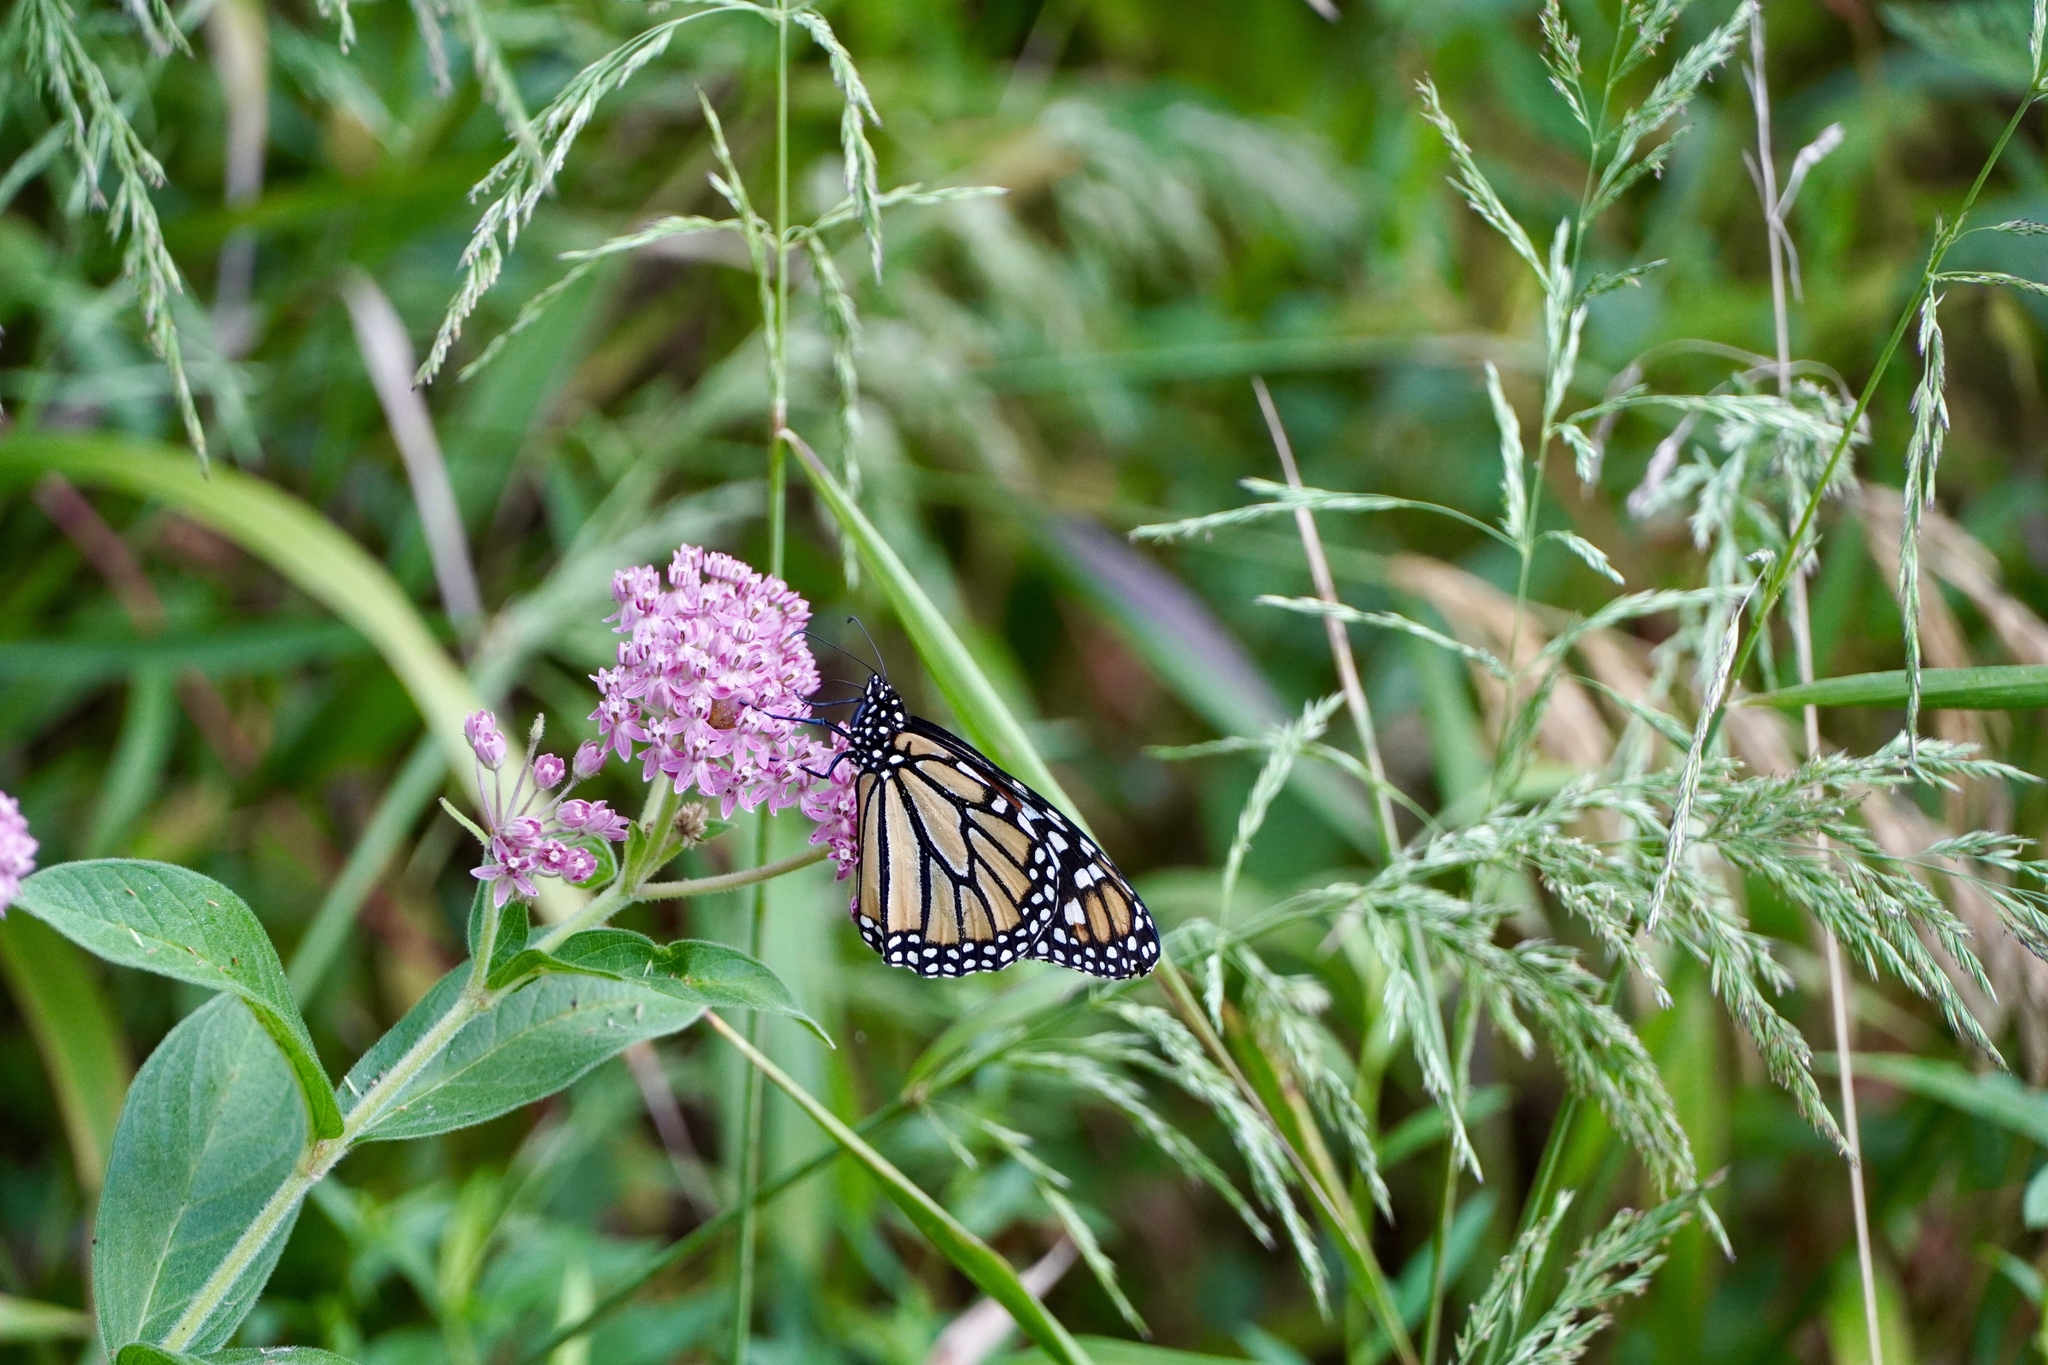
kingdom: Animalia
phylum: Arthropoda
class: Insecta
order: Lepidoptera
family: Nymphalidae
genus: Danaus
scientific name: Danaus plexippus
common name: Monarch
